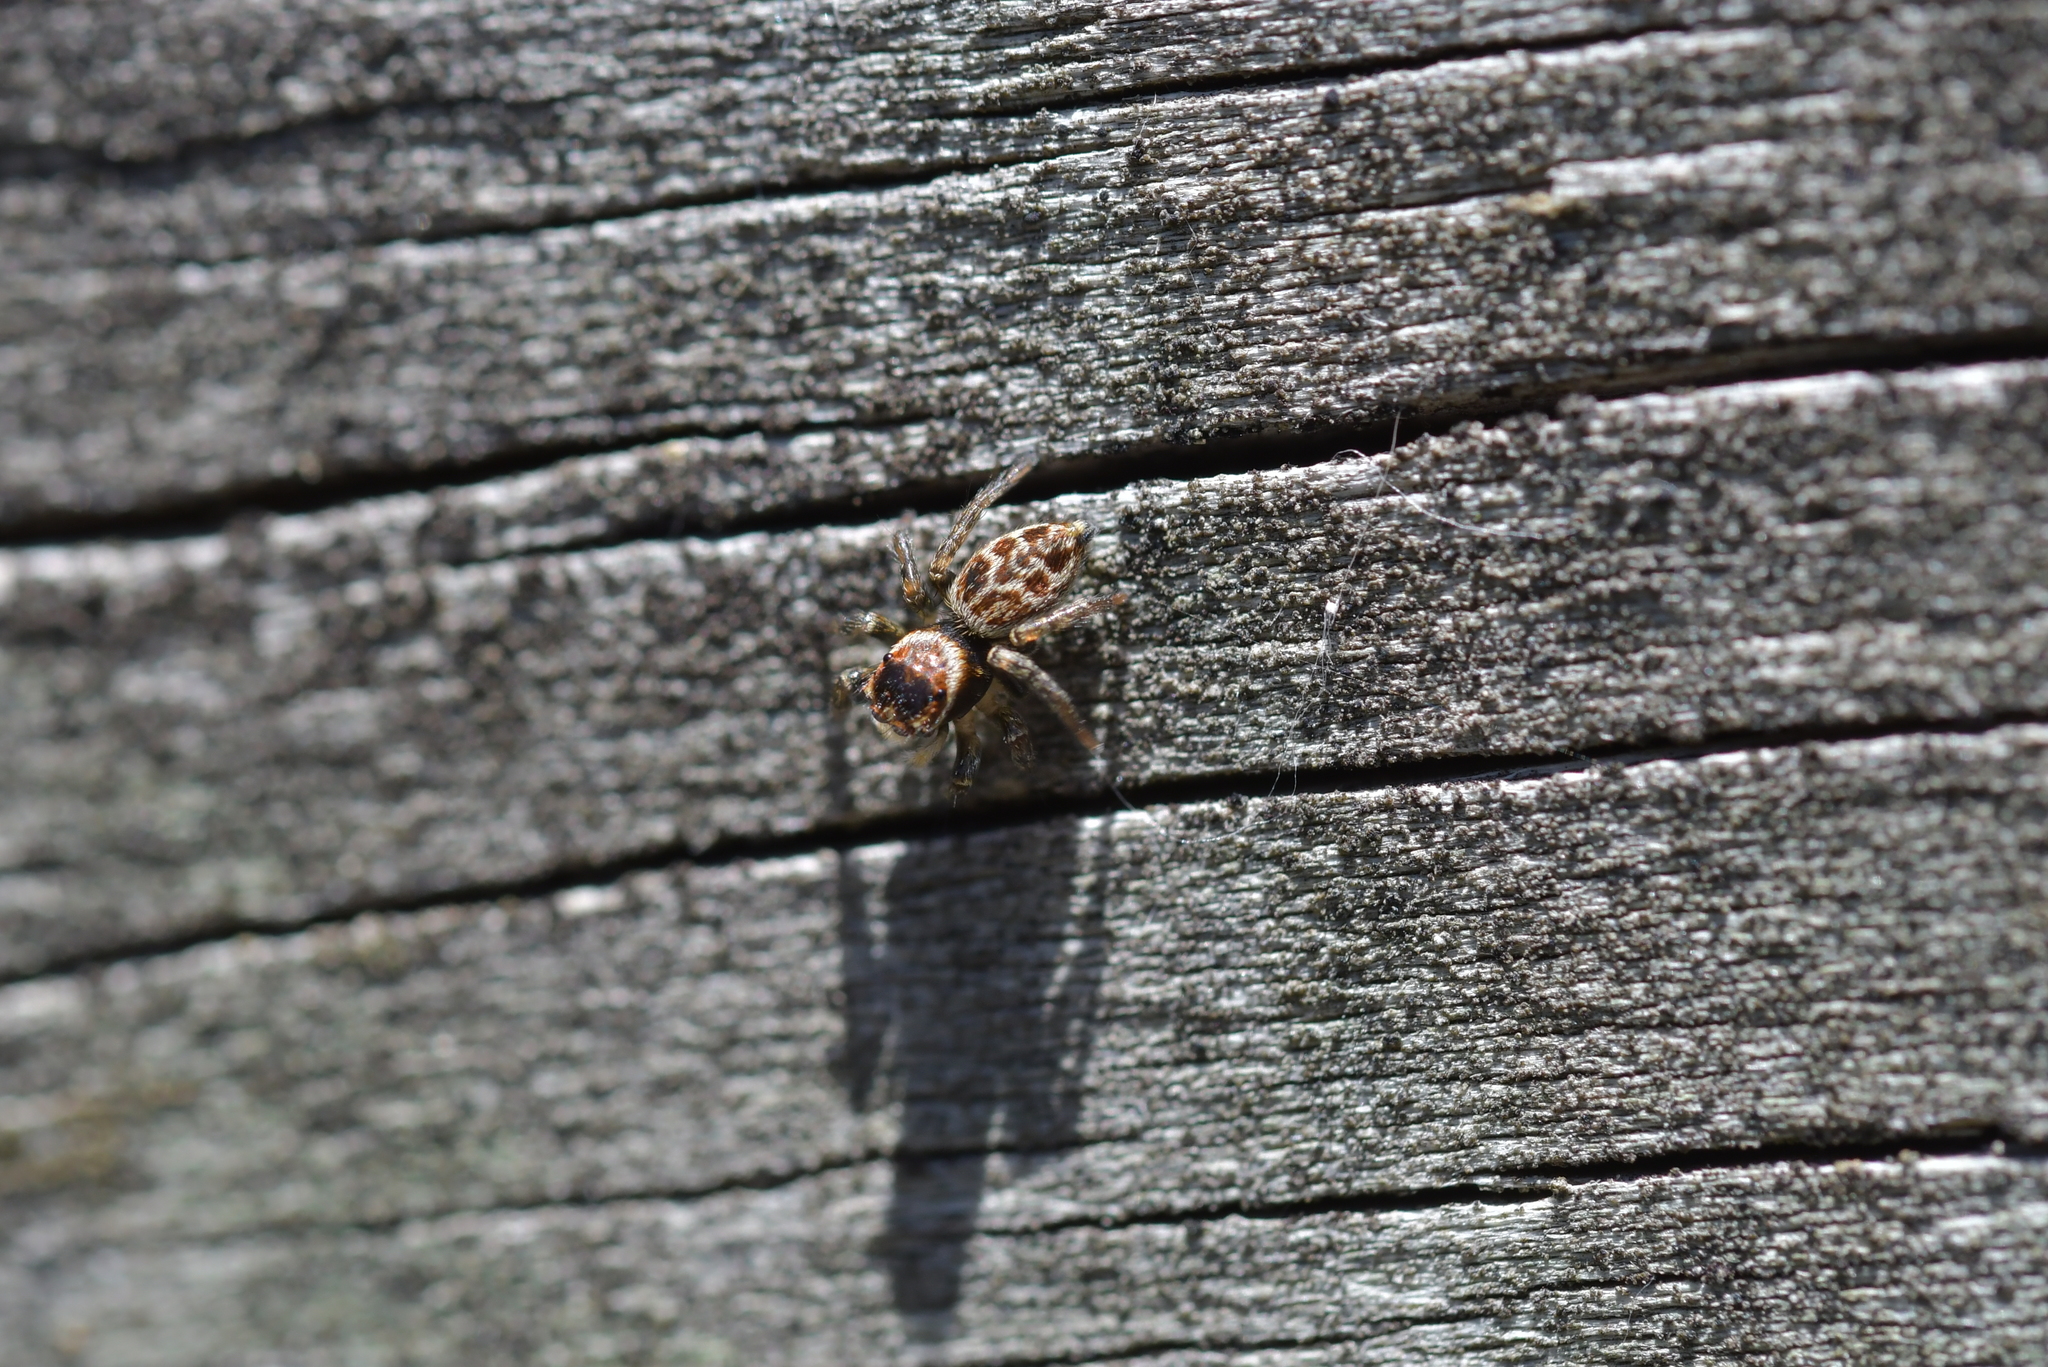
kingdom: Animalia
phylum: Arthropoda
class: Arachnida
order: Araneae
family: Salticidae
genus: Maratus
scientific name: Maratus griseus
